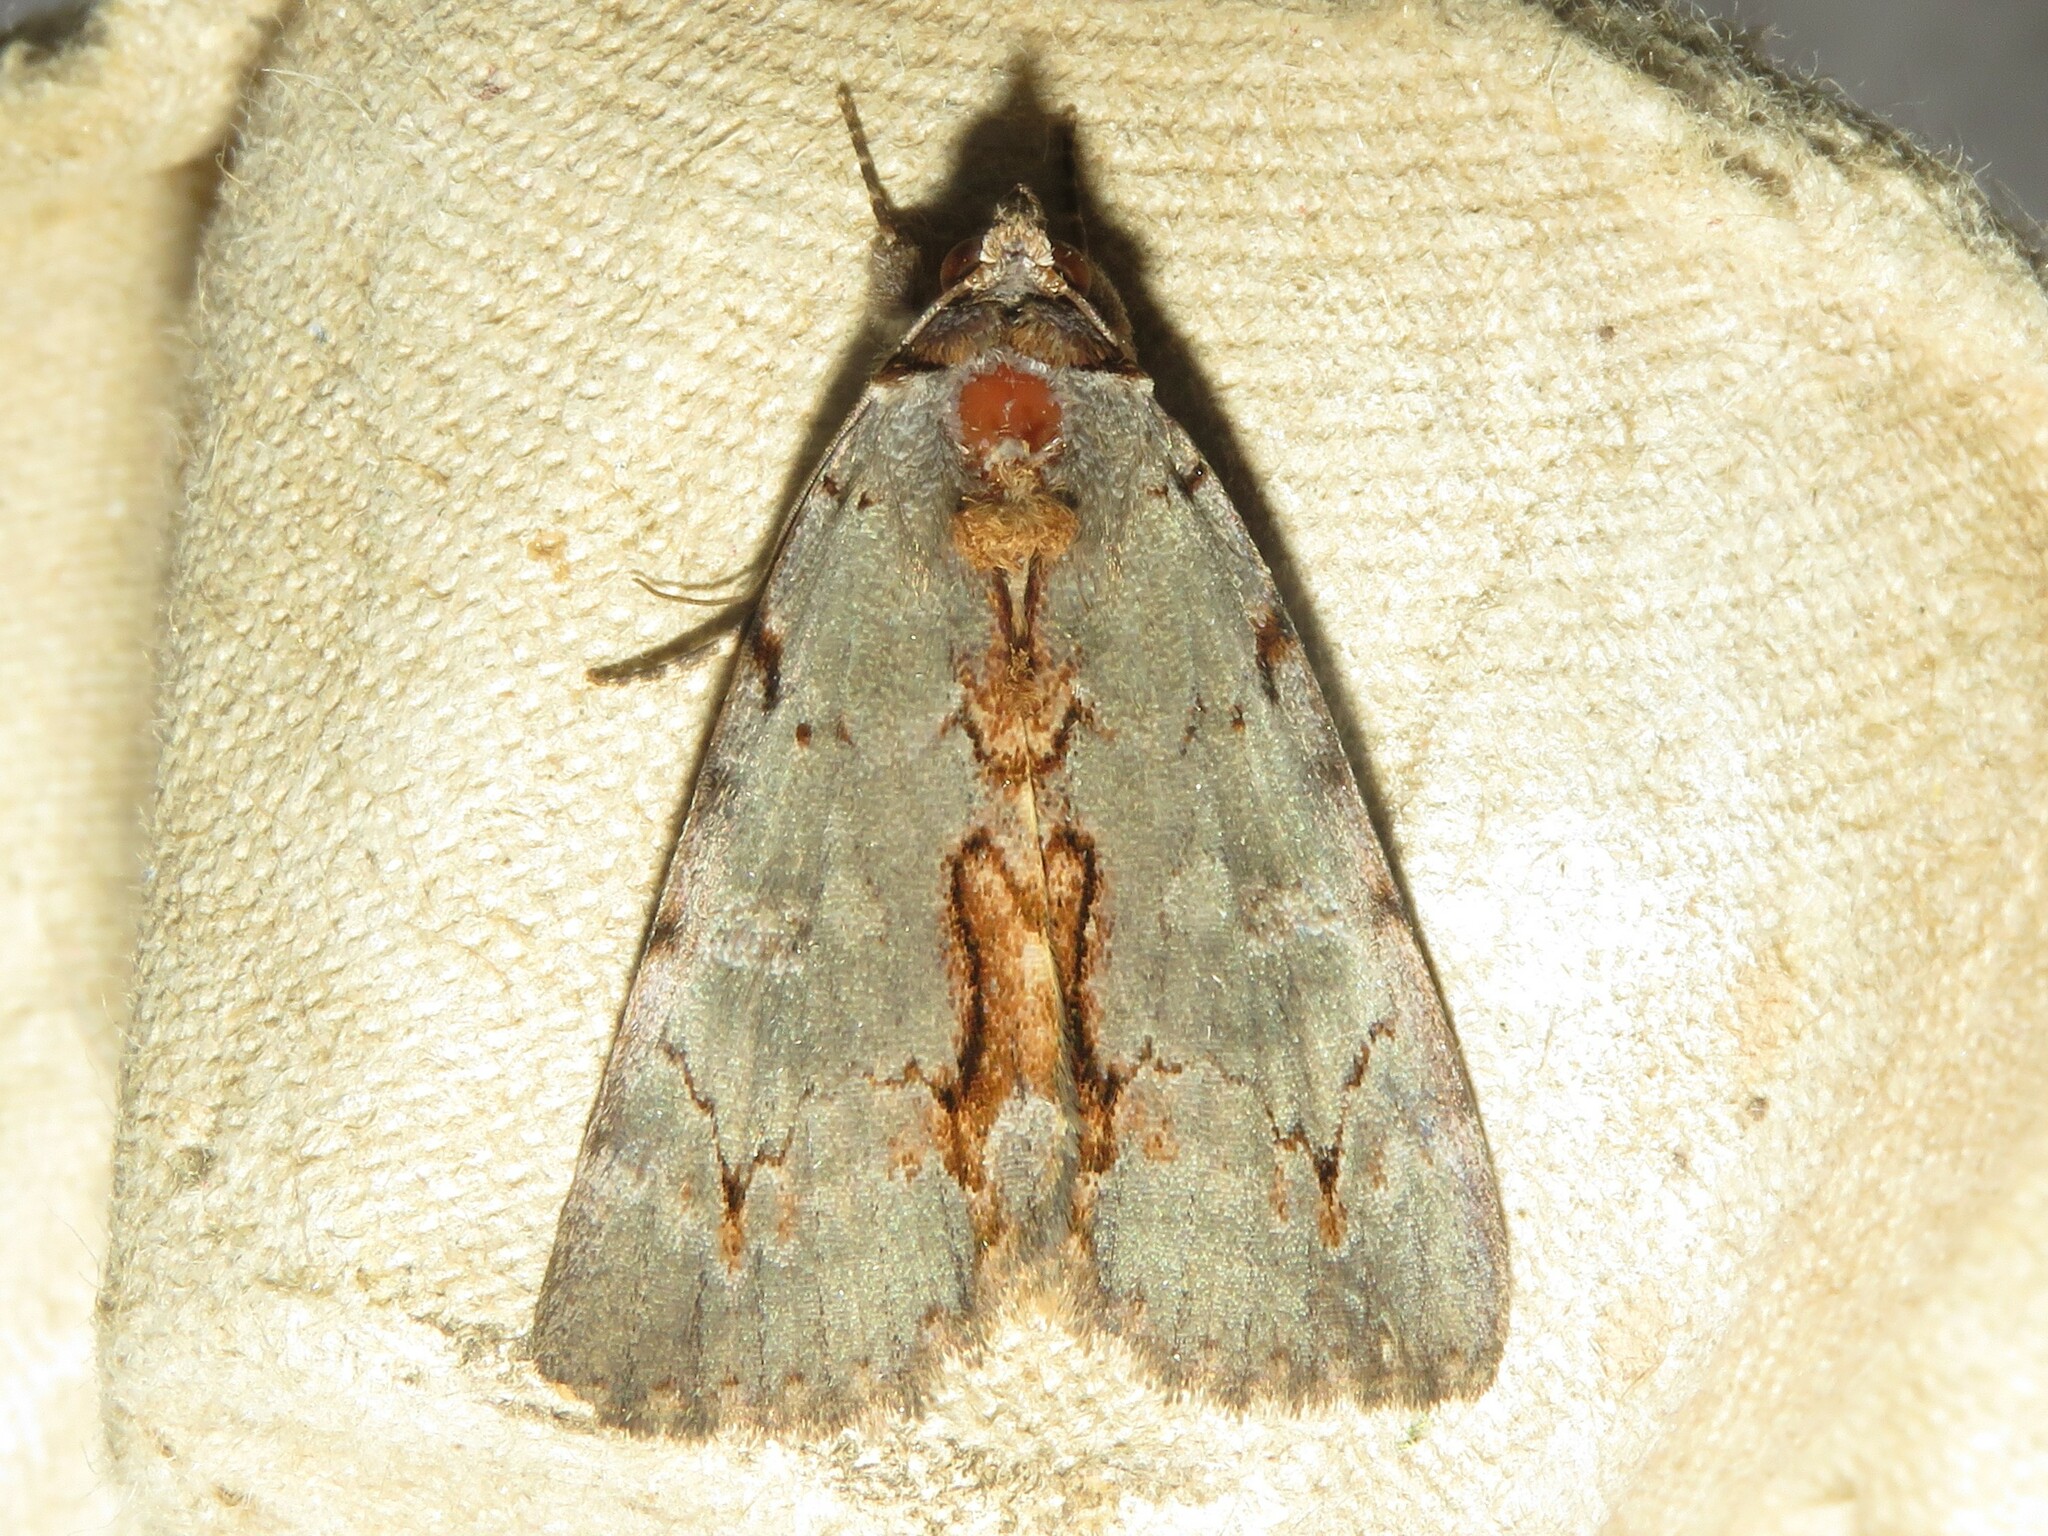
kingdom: Animalia
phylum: Arthropoda
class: Insecta
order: Lepidoptera
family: Erebidae
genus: Catocala
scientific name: Catocala grynea
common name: Woody underwing
